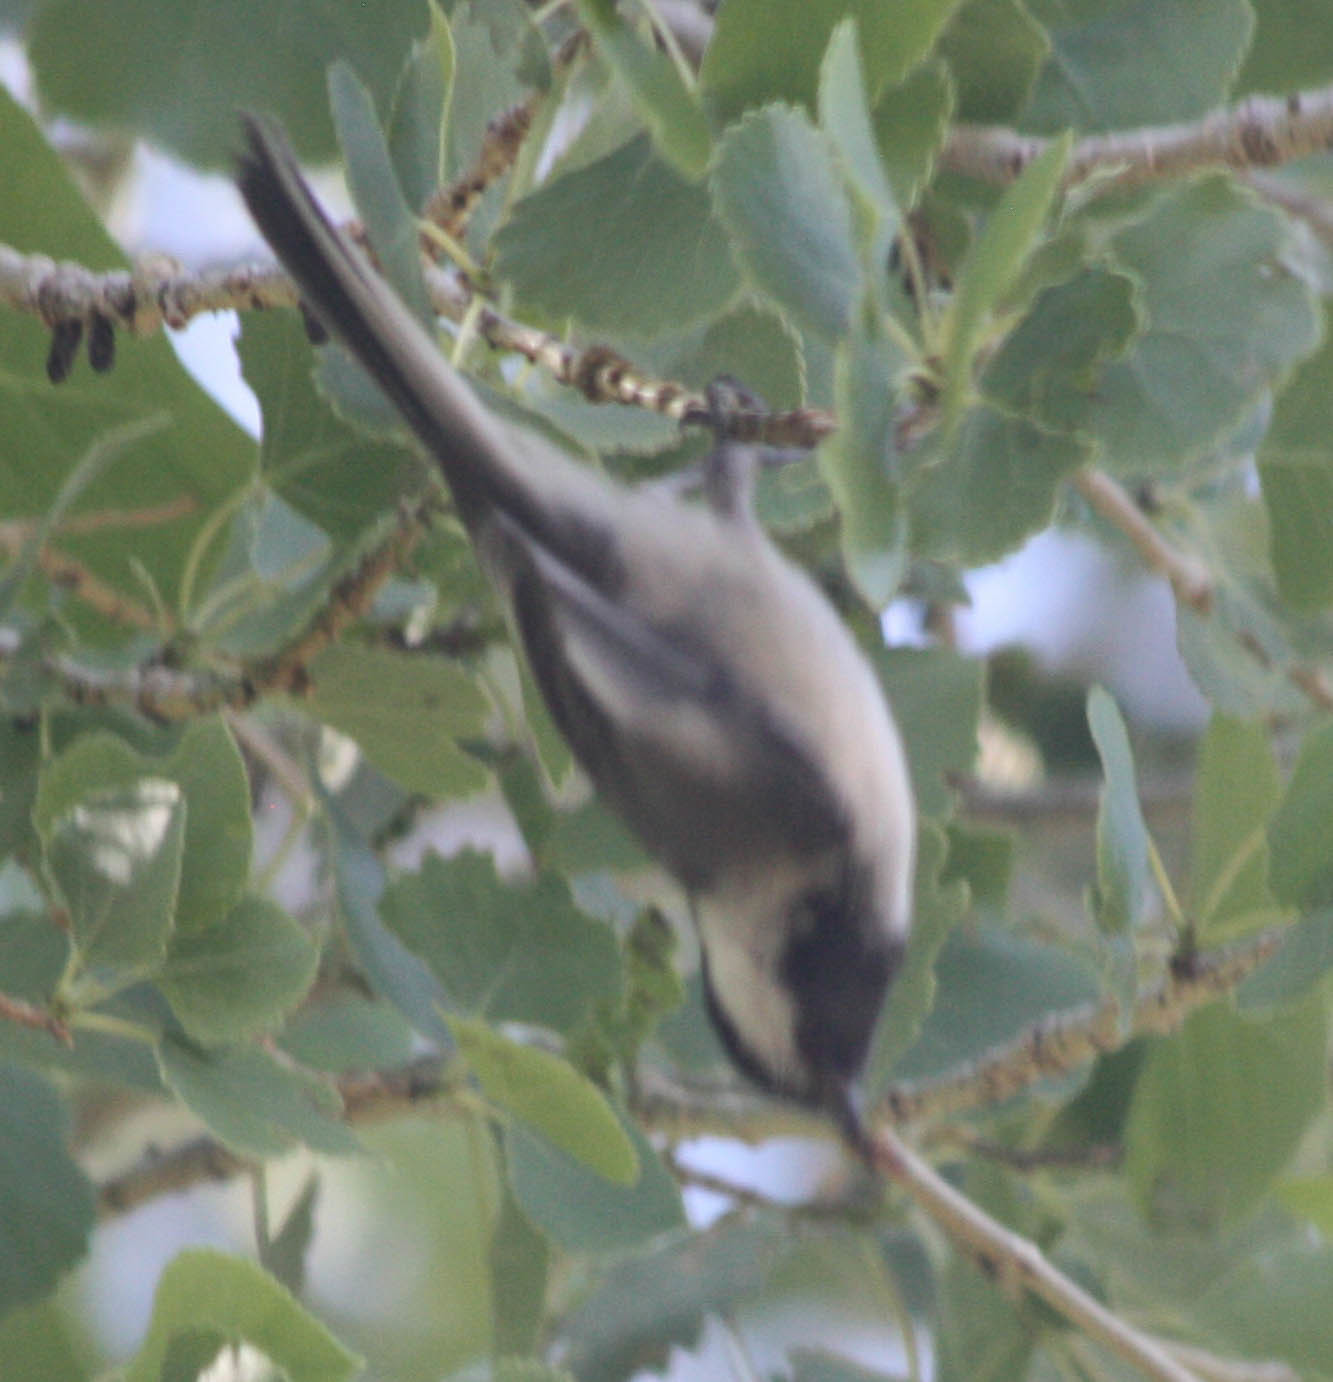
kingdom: Animalia
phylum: Chordata
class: Aves
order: Passeriformes
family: Paridae
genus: Poecile
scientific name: Poecile atricapillus
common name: Black-capped chickadee
